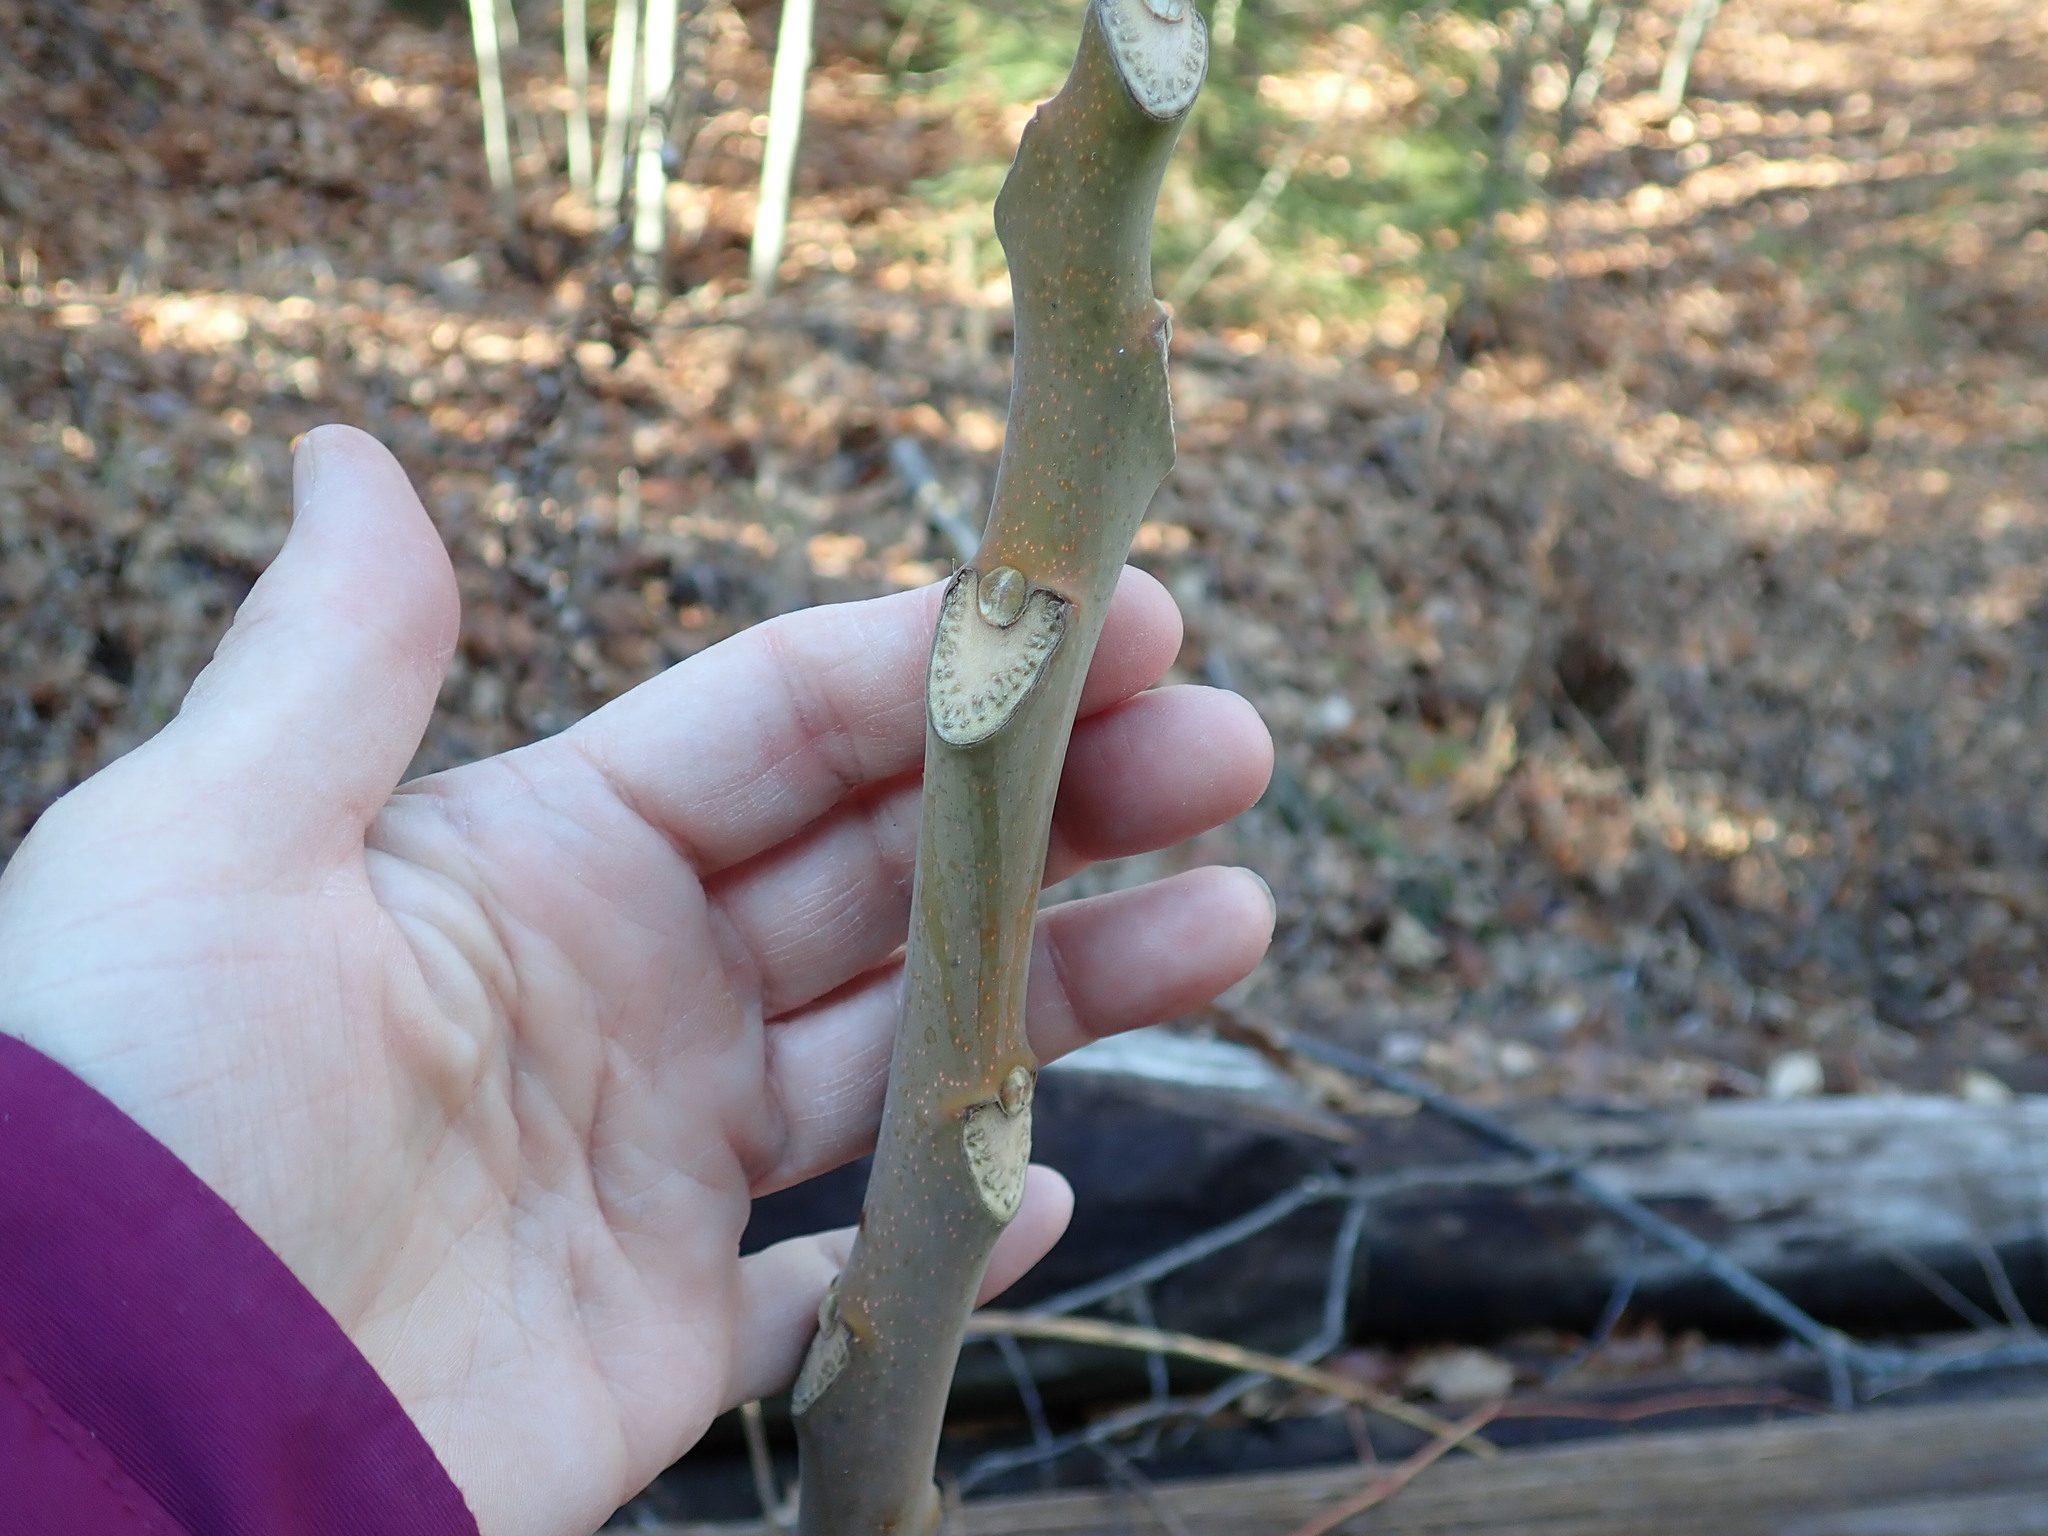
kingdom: Plantae
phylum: Tracheophyta
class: Magnoliopsida
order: Sapindales
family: Simaroubaceae
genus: Ailanthus
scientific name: Ailanthus altissima
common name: Tree-of-heaven
